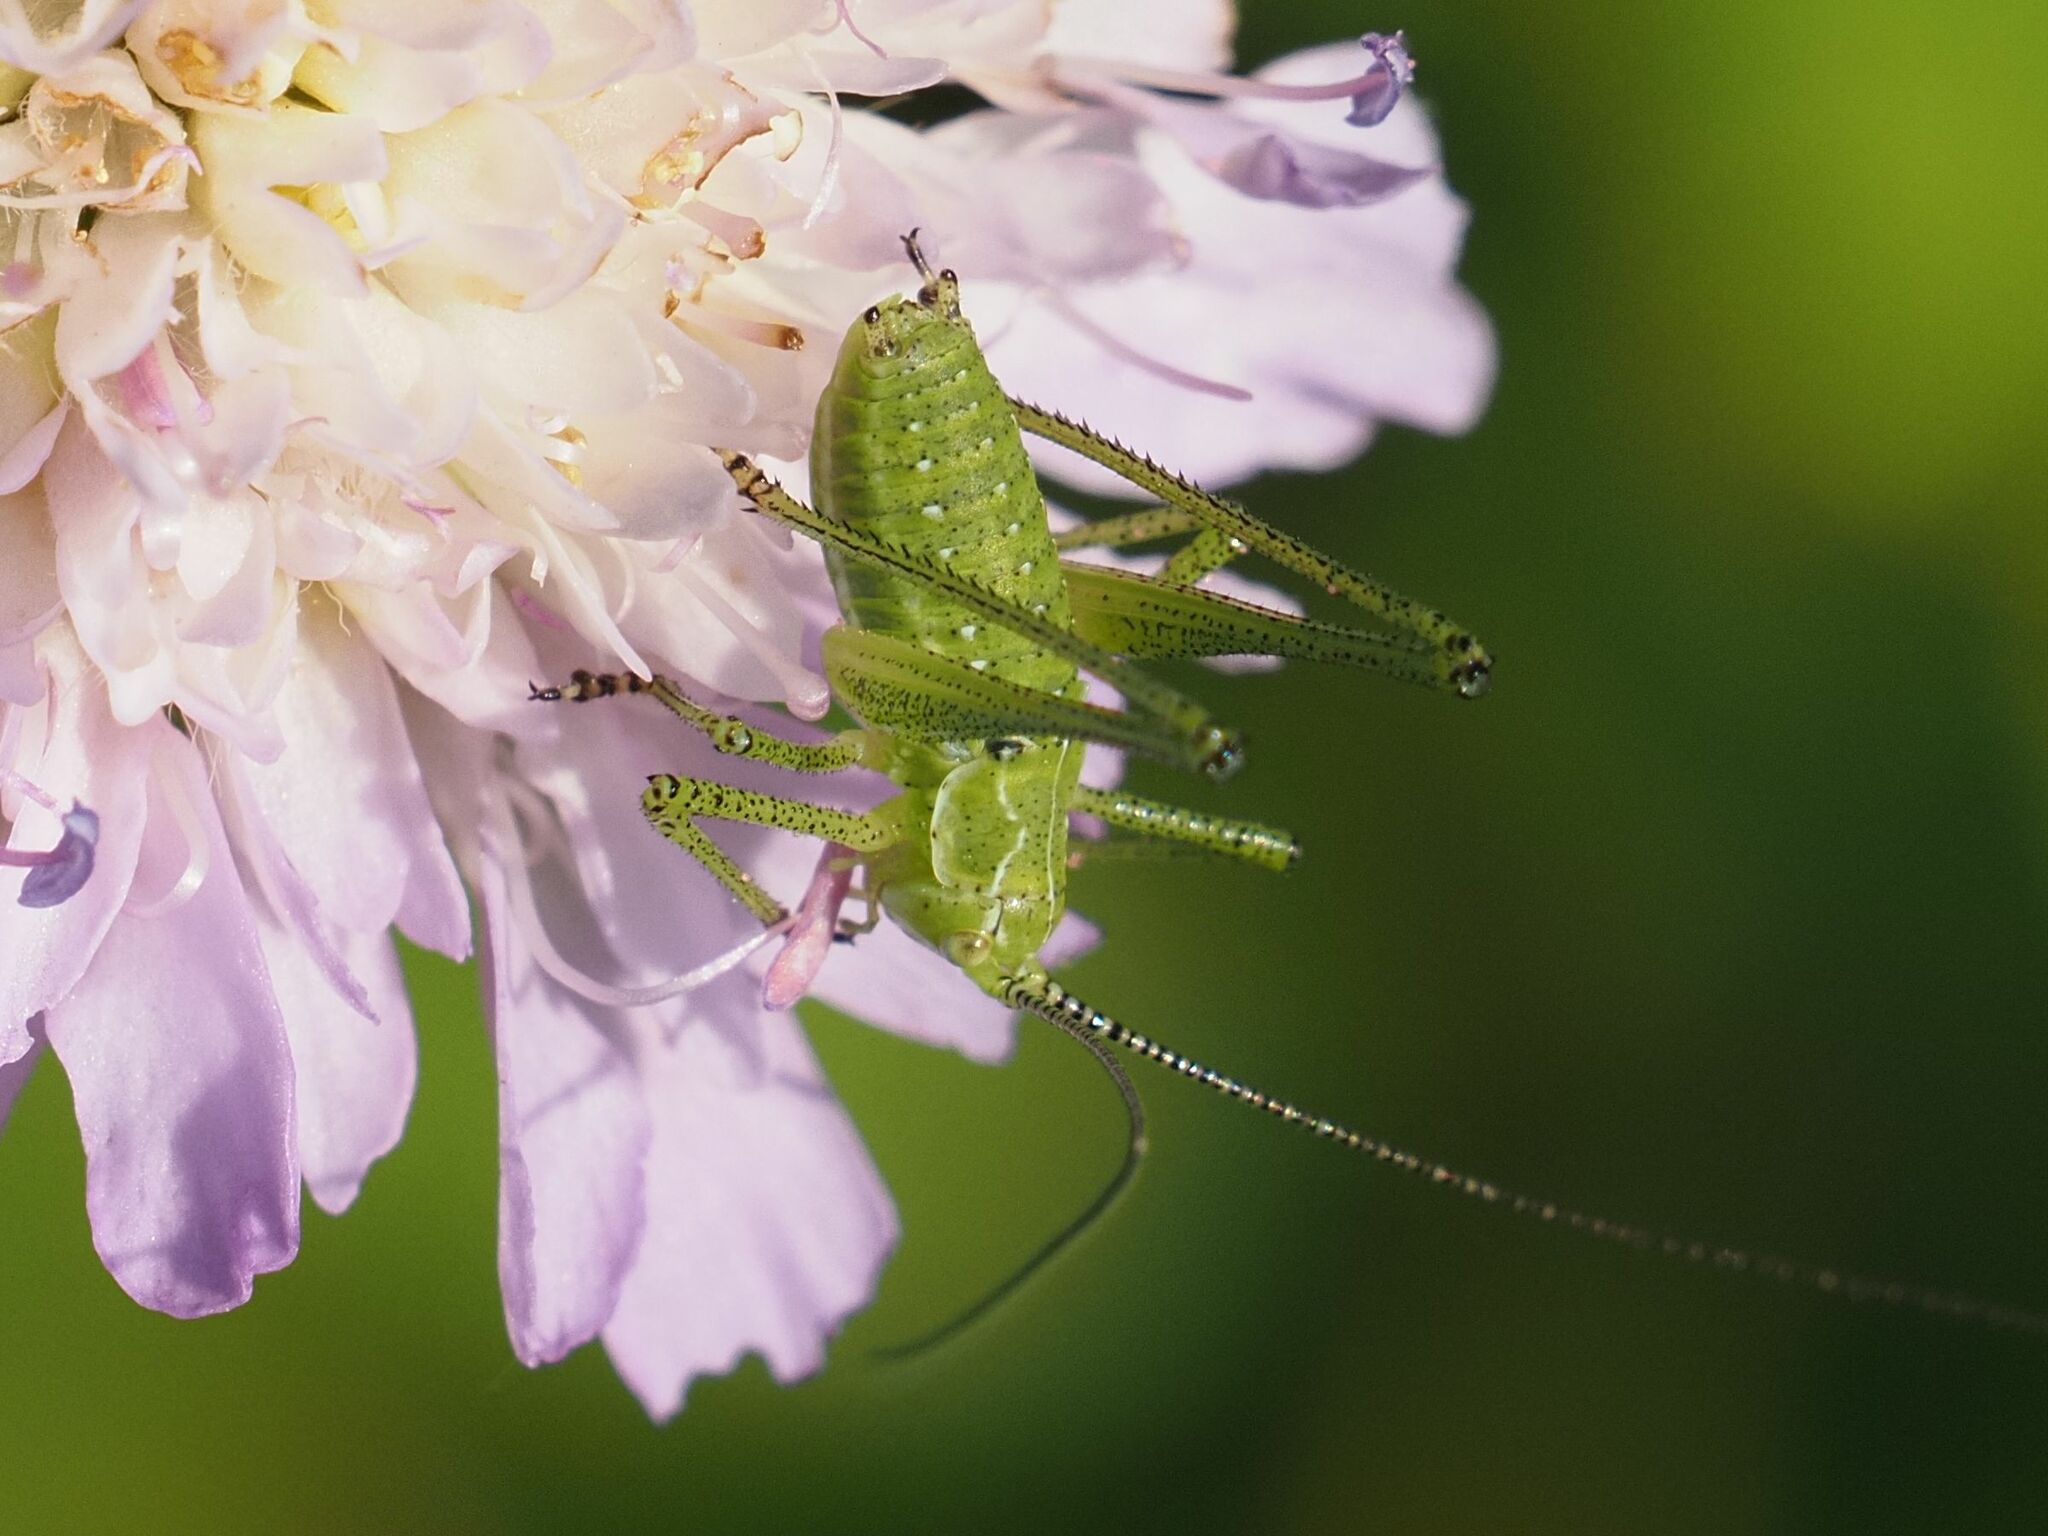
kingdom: Animalia
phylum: Arthropoda
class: Insecta
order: Orthoptera
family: Tettigoniidae
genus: Leptophyes
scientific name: Leptophyes albovittata
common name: Striped bush-cricket
